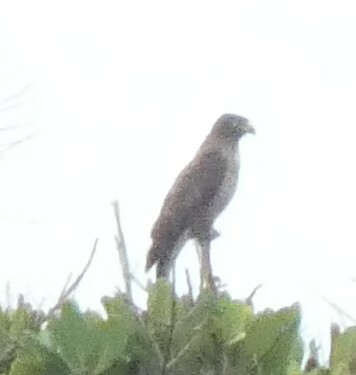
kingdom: Animalia
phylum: Chordata
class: Aves
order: Accipitriformes
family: Accipitridae
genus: Rupornis
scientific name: Rupornis magnirostris
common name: Roadside hawk
